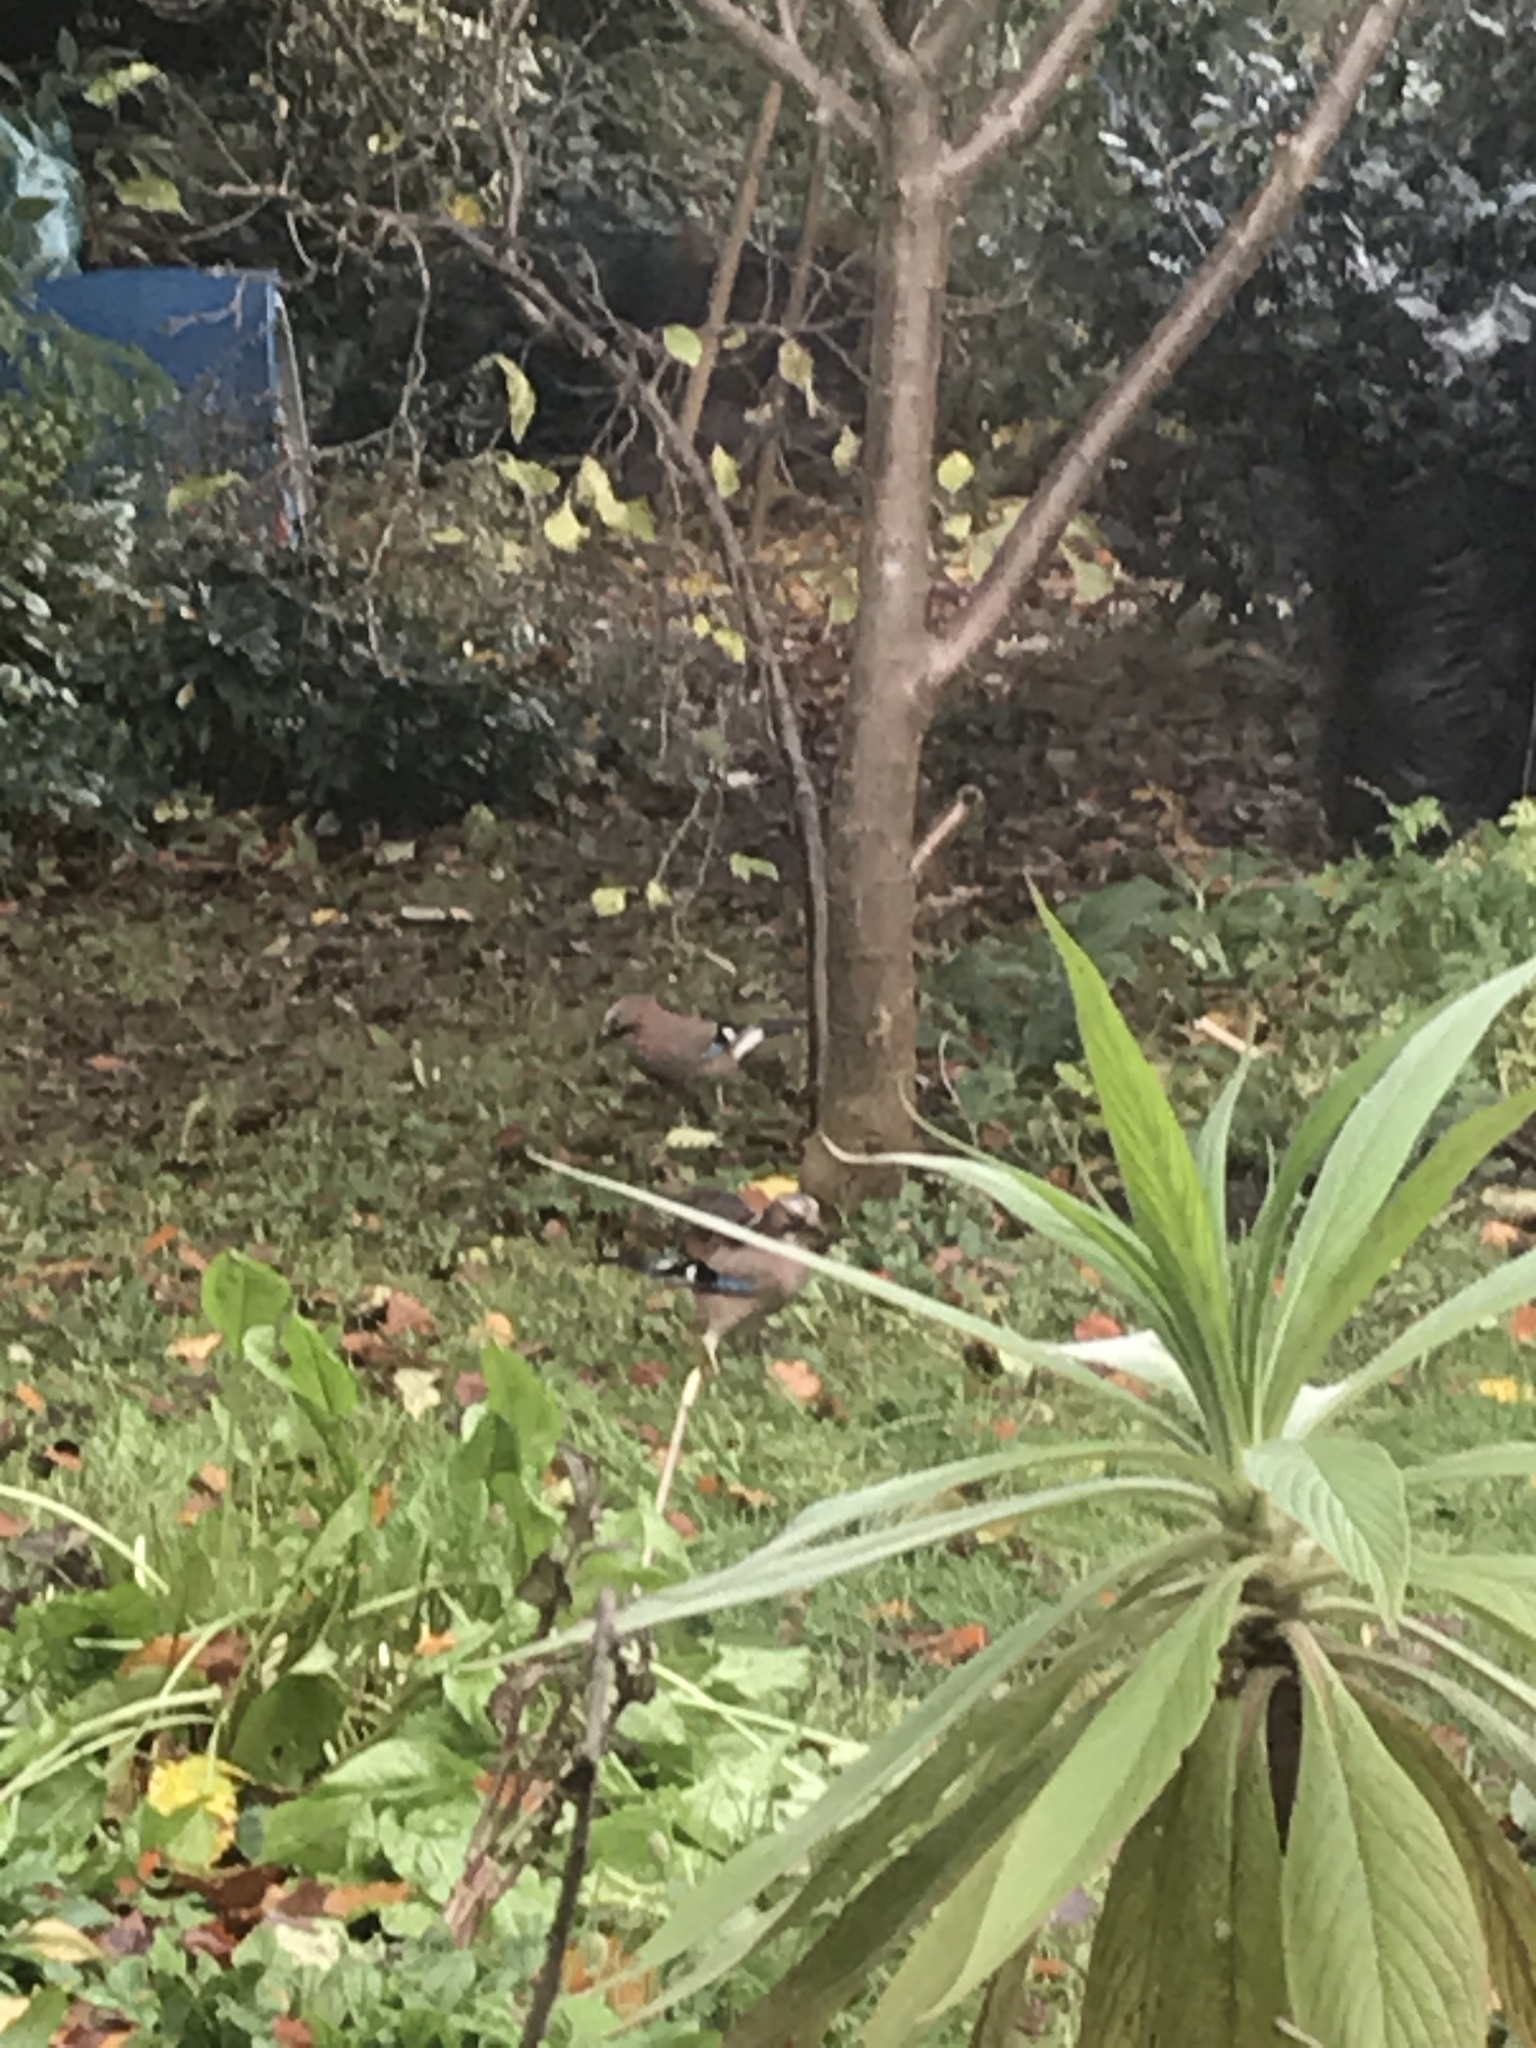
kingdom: Animalia
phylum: Chordata
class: Aves
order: Passeriformes
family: Corvidae
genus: Garrulus
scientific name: Garrulus glandarius
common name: Eurasian jay
